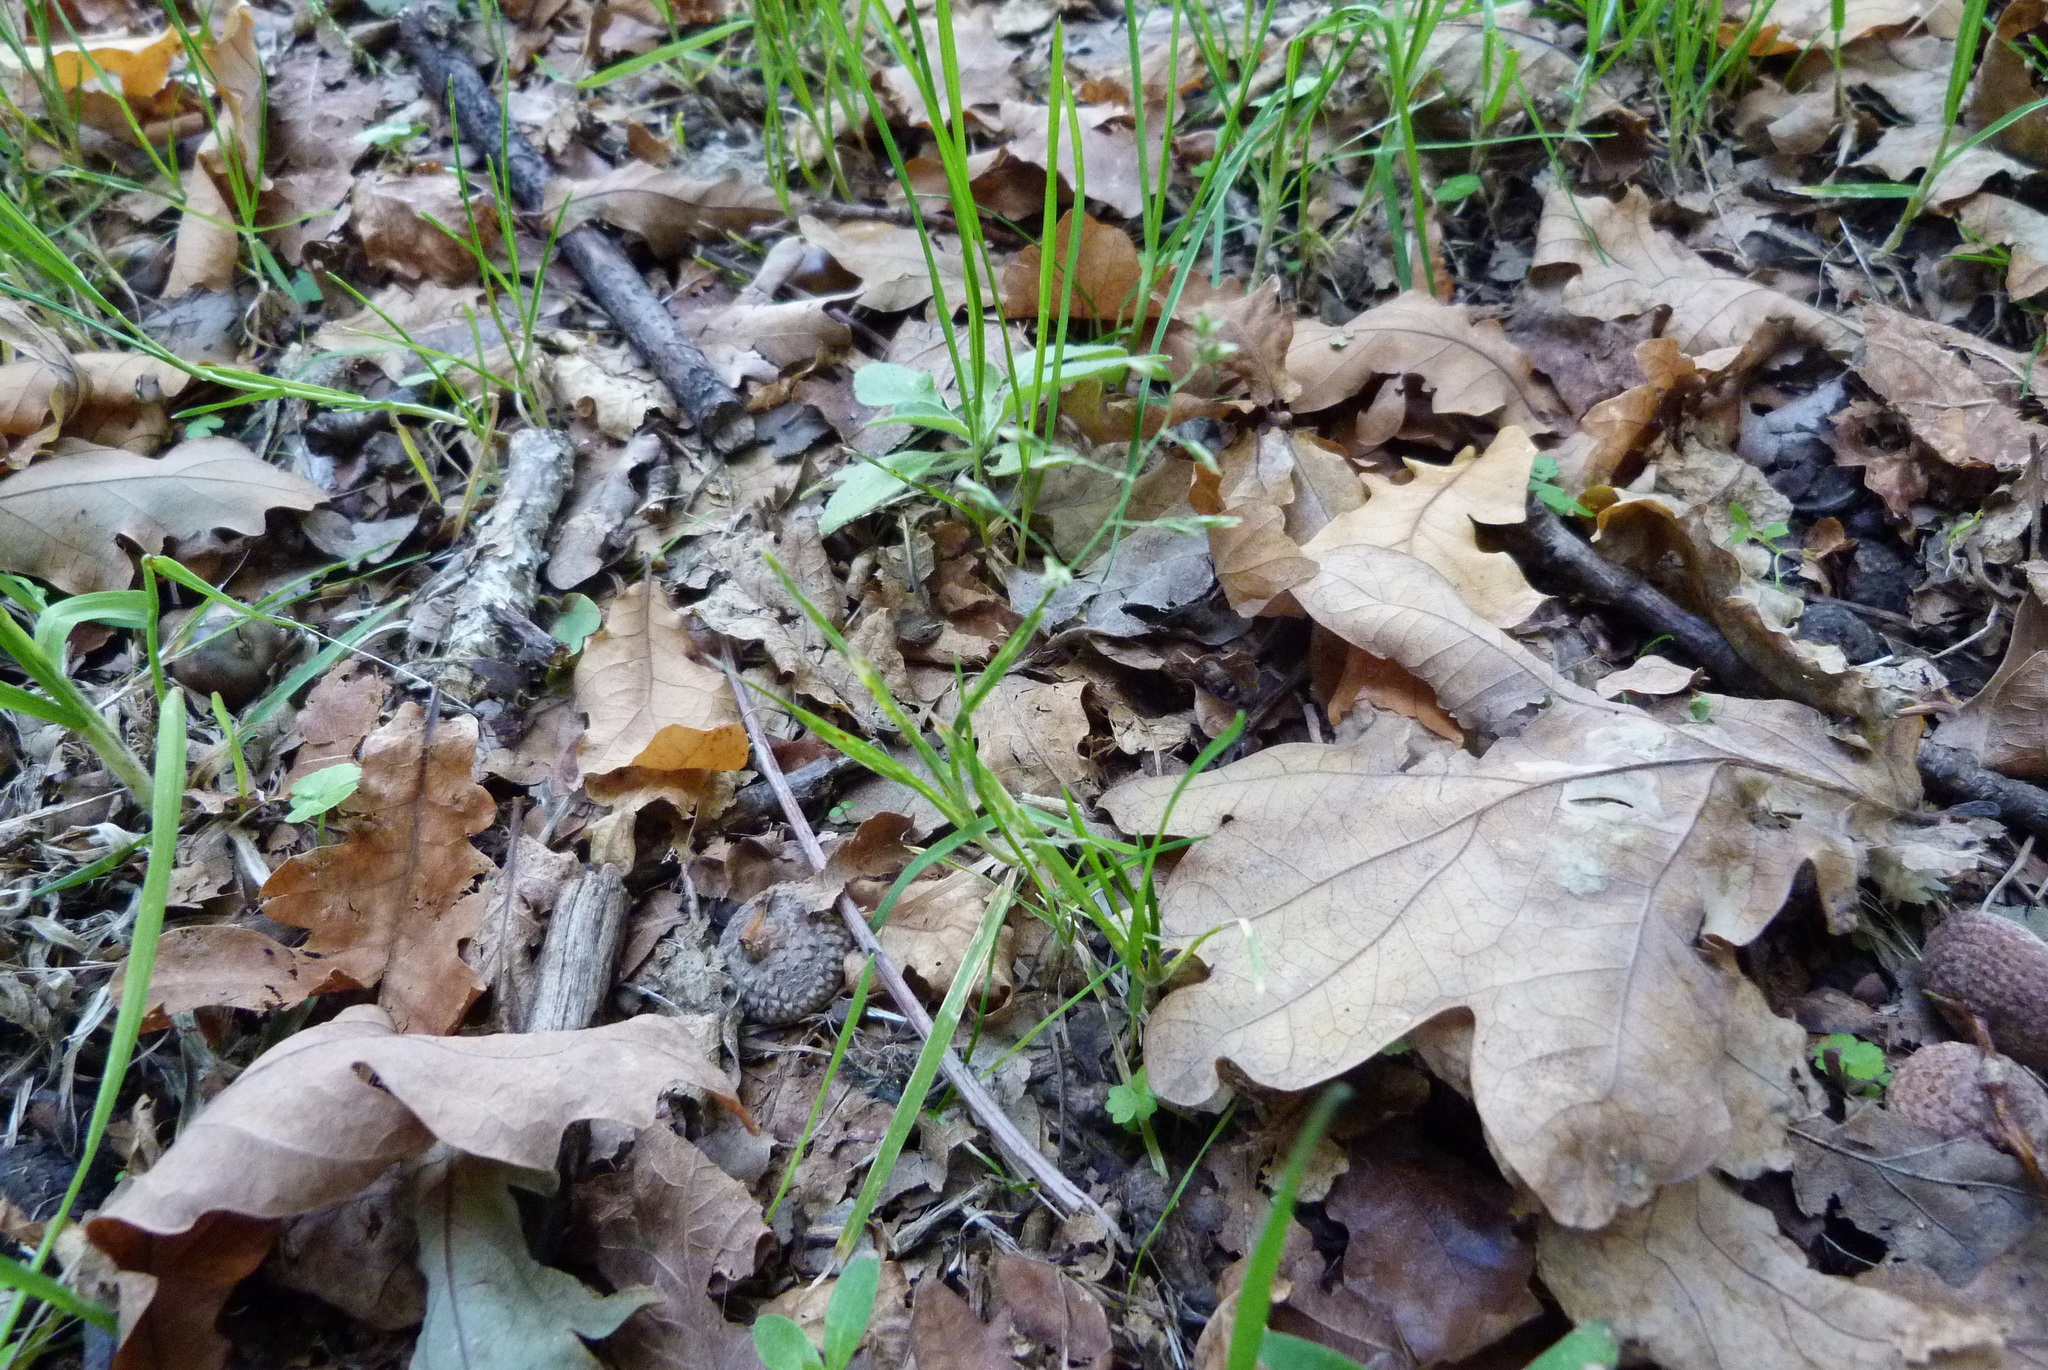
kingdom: Plantae
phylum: Tracheophyta
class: Liliopsida
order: Poales
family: Poaceae
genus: Poa
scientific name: Poa annua
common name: Annual bluegrass
